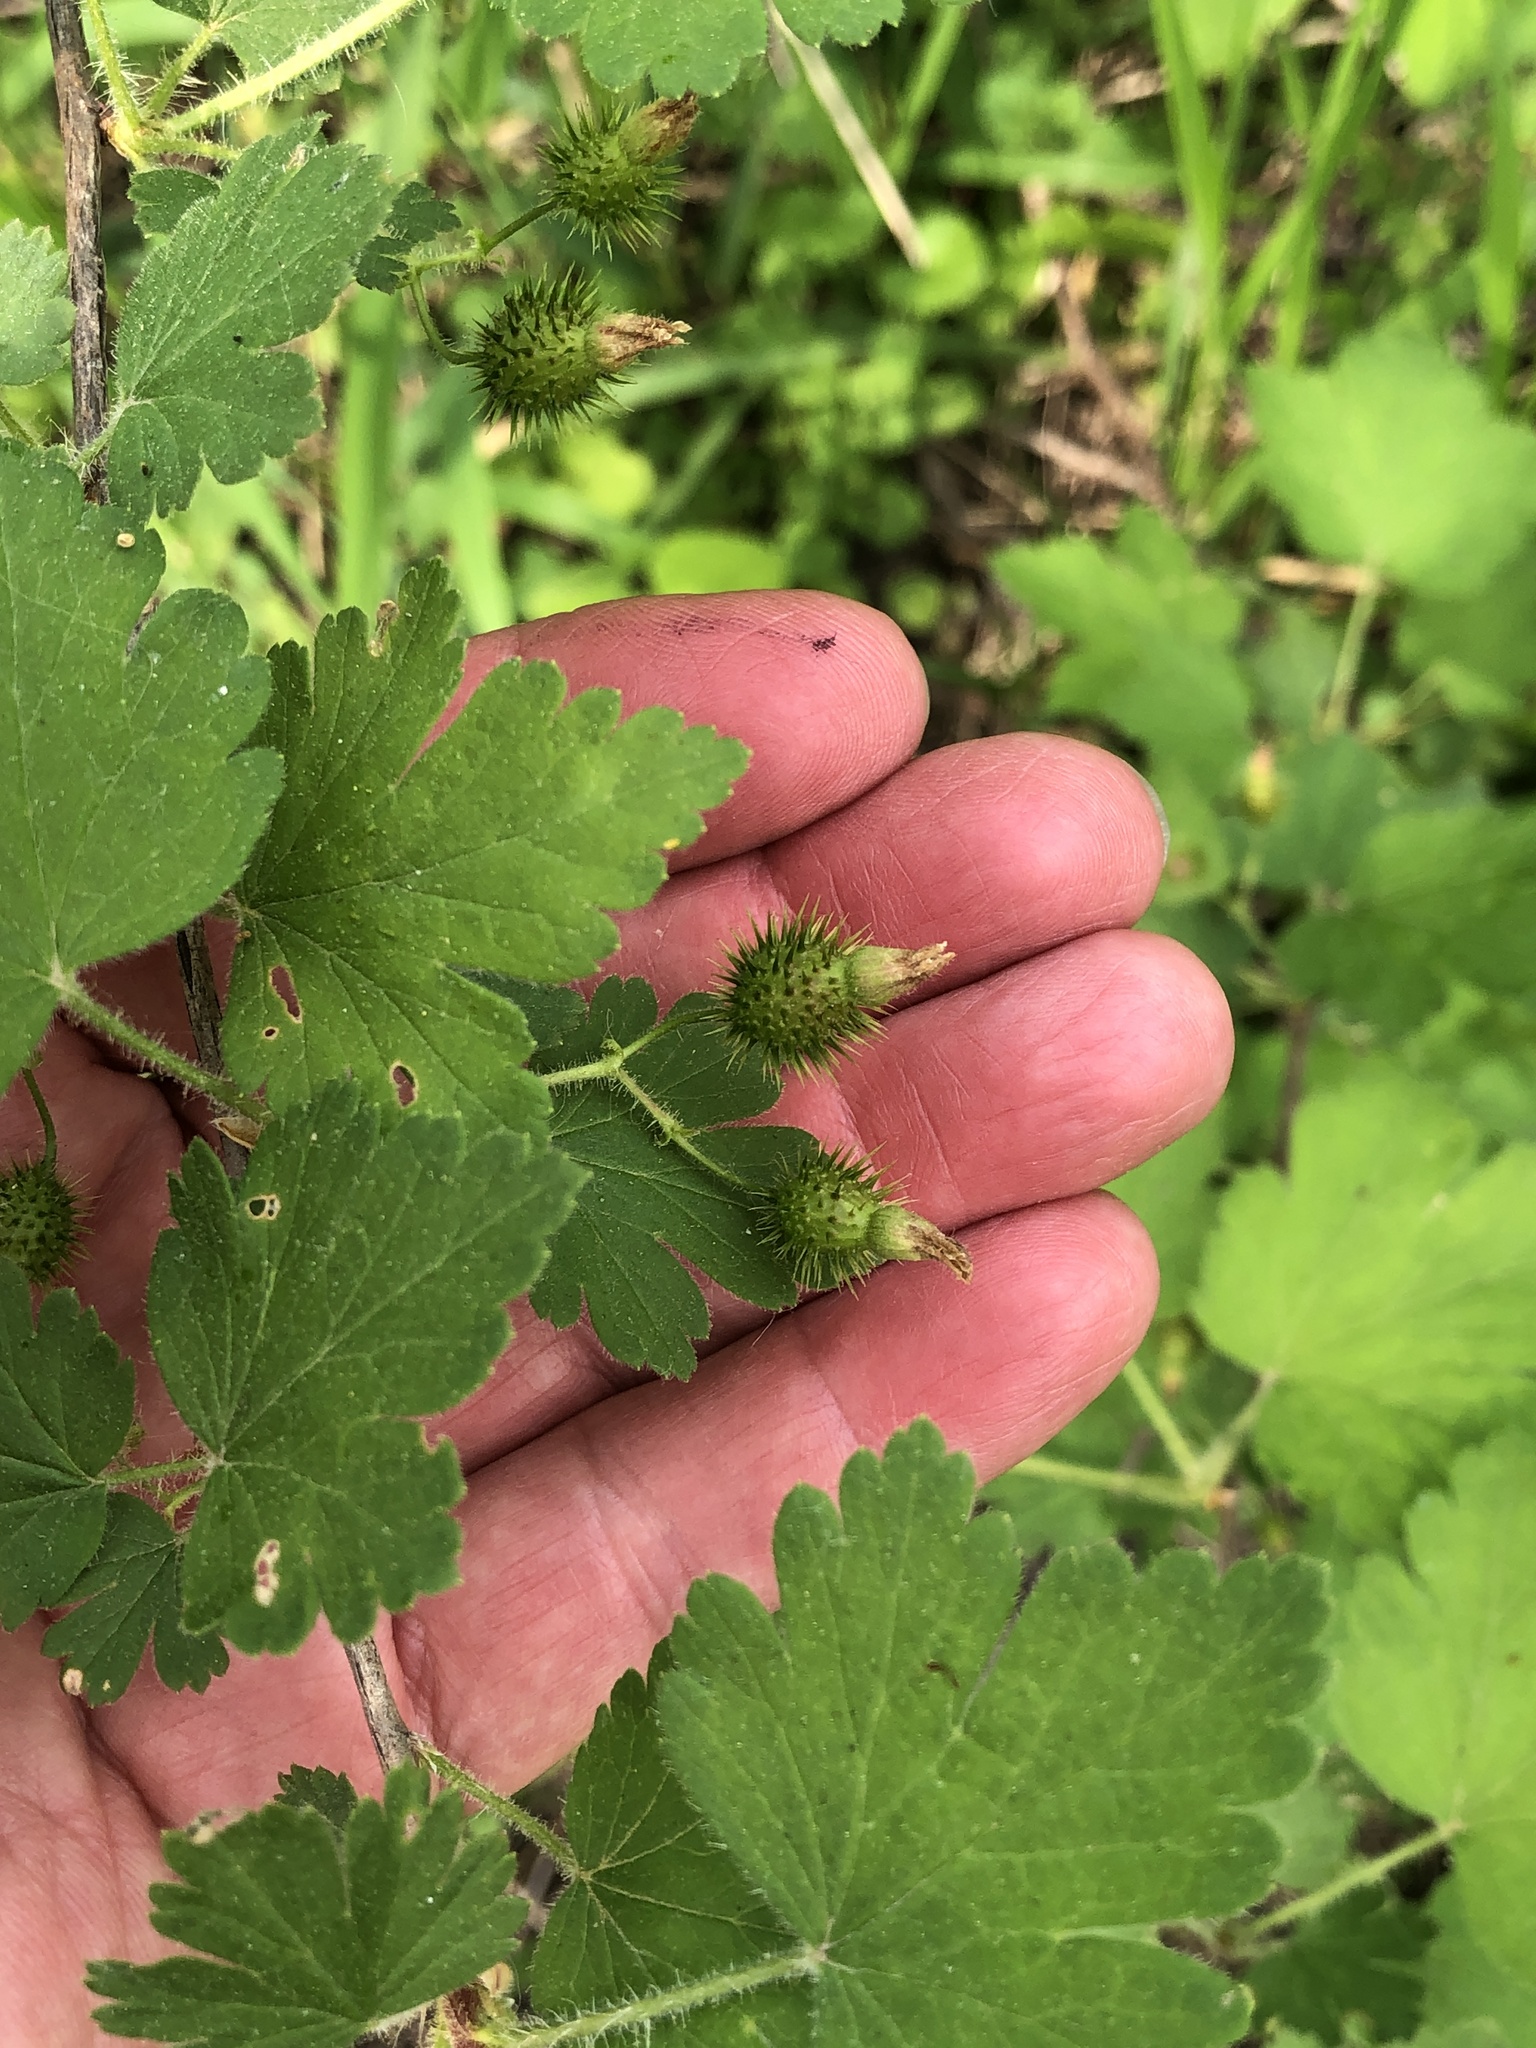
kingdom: Plantae
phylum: Tracheophyta
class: Magnoliopsida
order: Saxifragales
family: Grossulariaceae
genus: Ribes
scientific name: Ribes cynosbati
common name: American gooseberry
